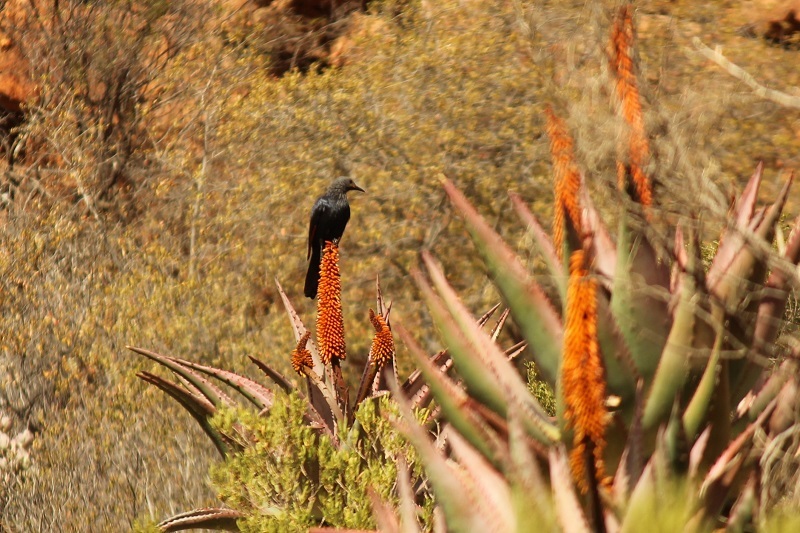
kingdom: Animalia
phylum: Chordata
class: Aves
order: Passeriformes
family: Sturnidae
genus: Onychognathus
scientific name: Onychognathus morio
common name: Red-winged starling
